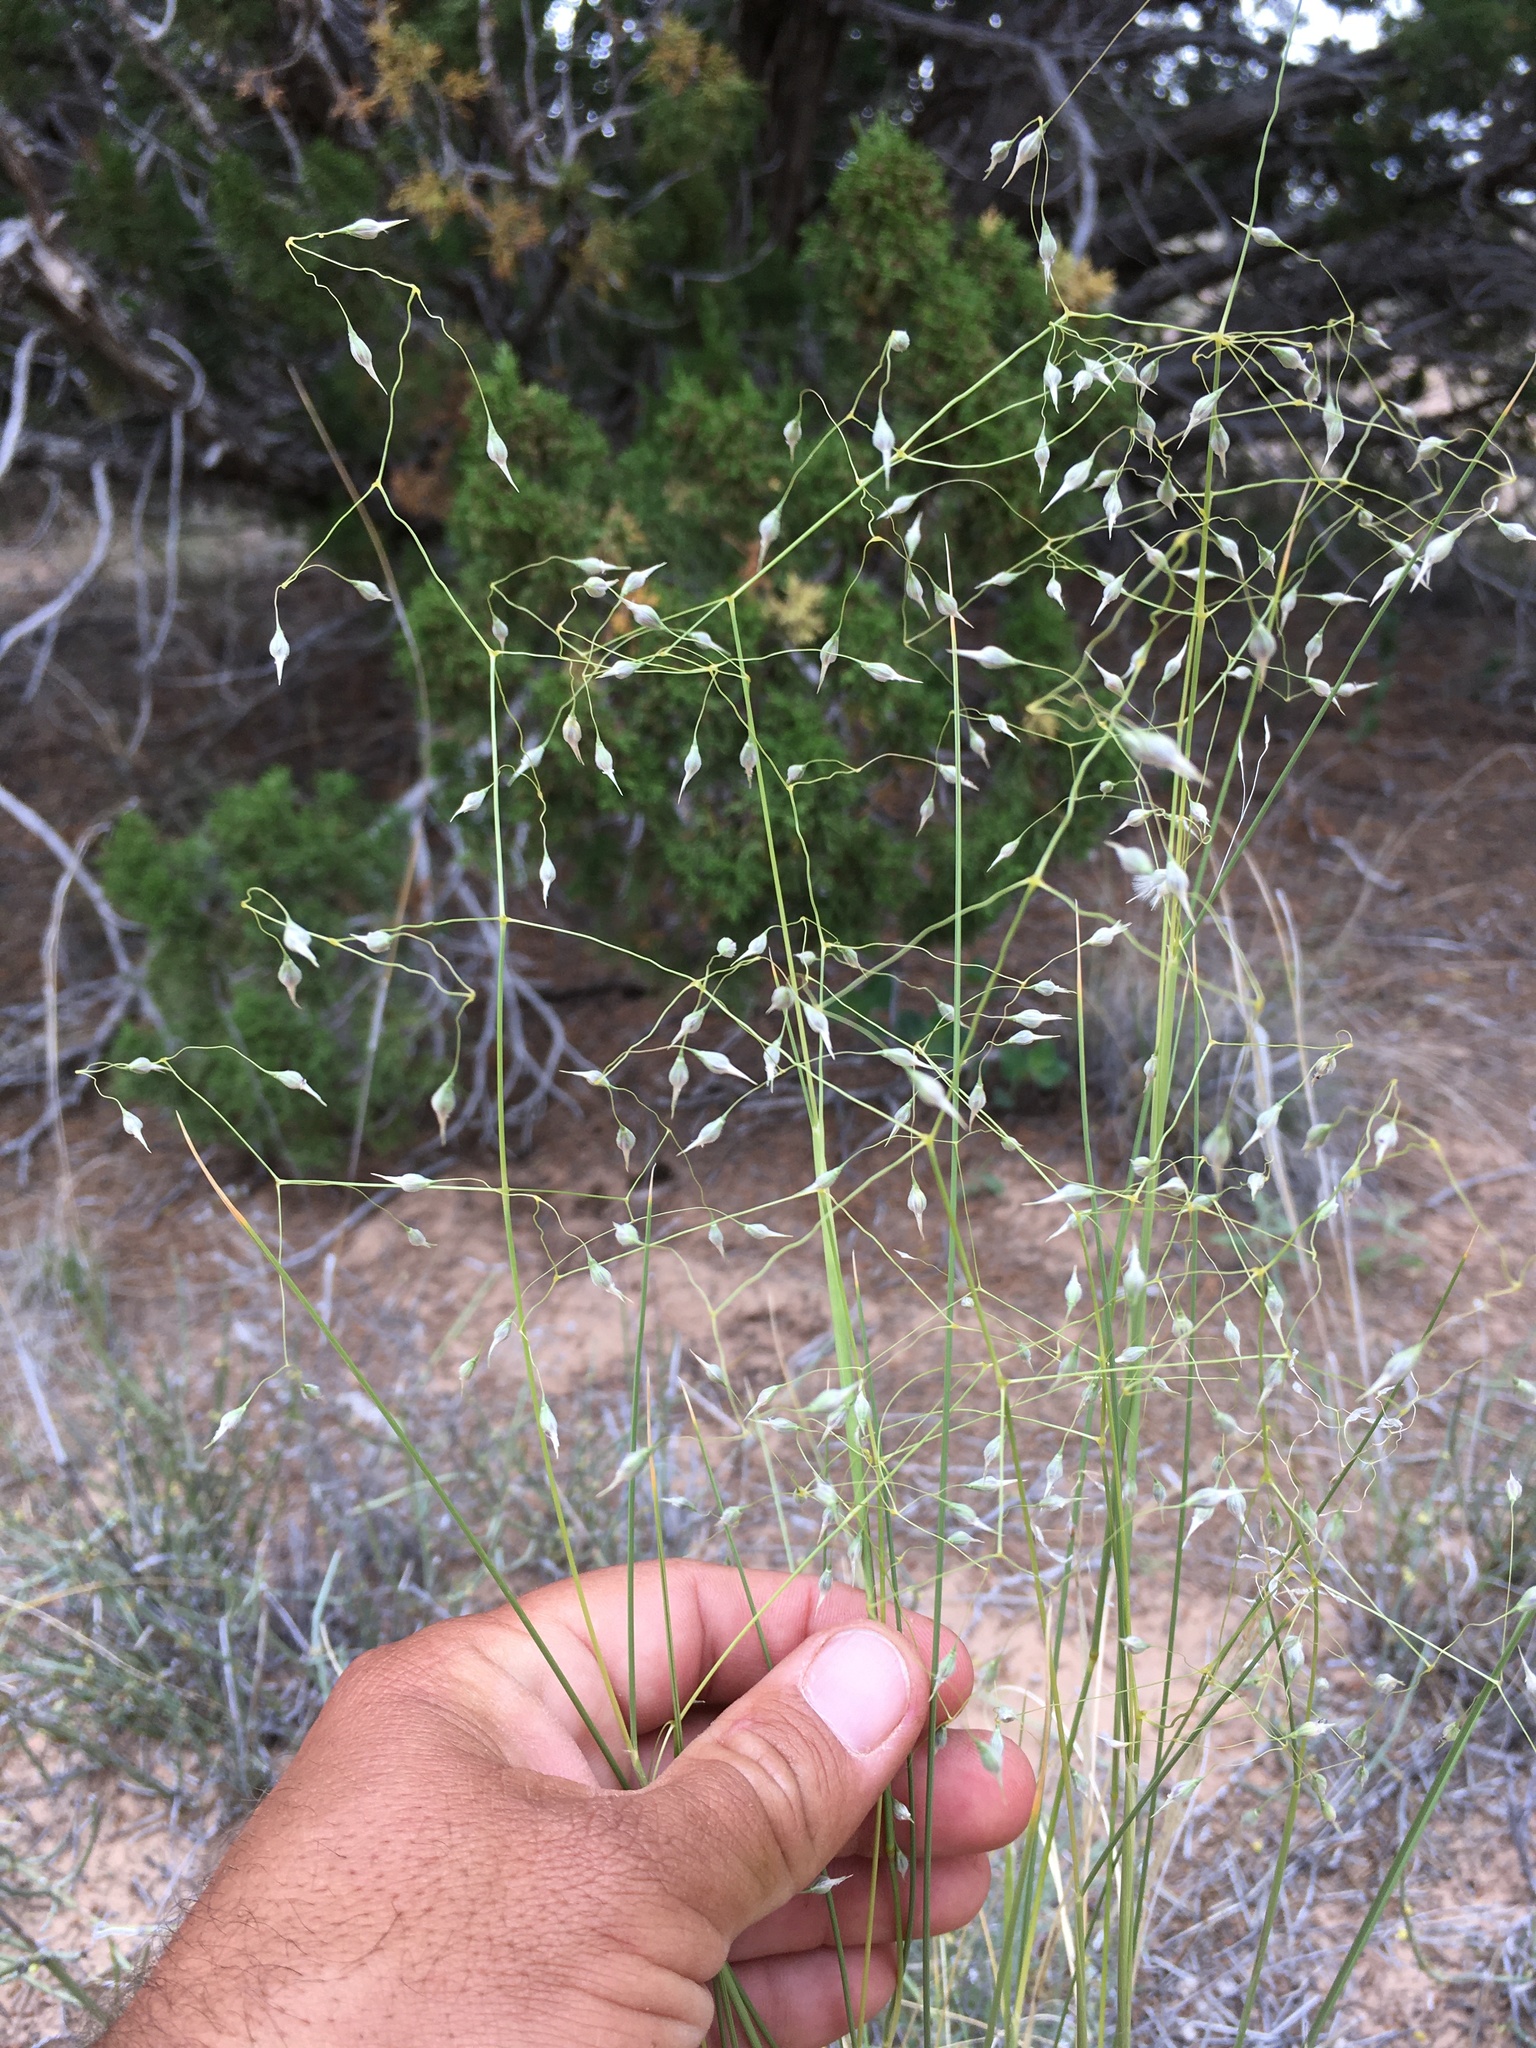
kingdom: Plantae
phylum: Tracheophyta
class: Liliopsida
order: Poales
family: Poaceae
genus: Eriocoma
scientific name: Eriocoma hymenoides
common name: Indian mountain ricegrass
